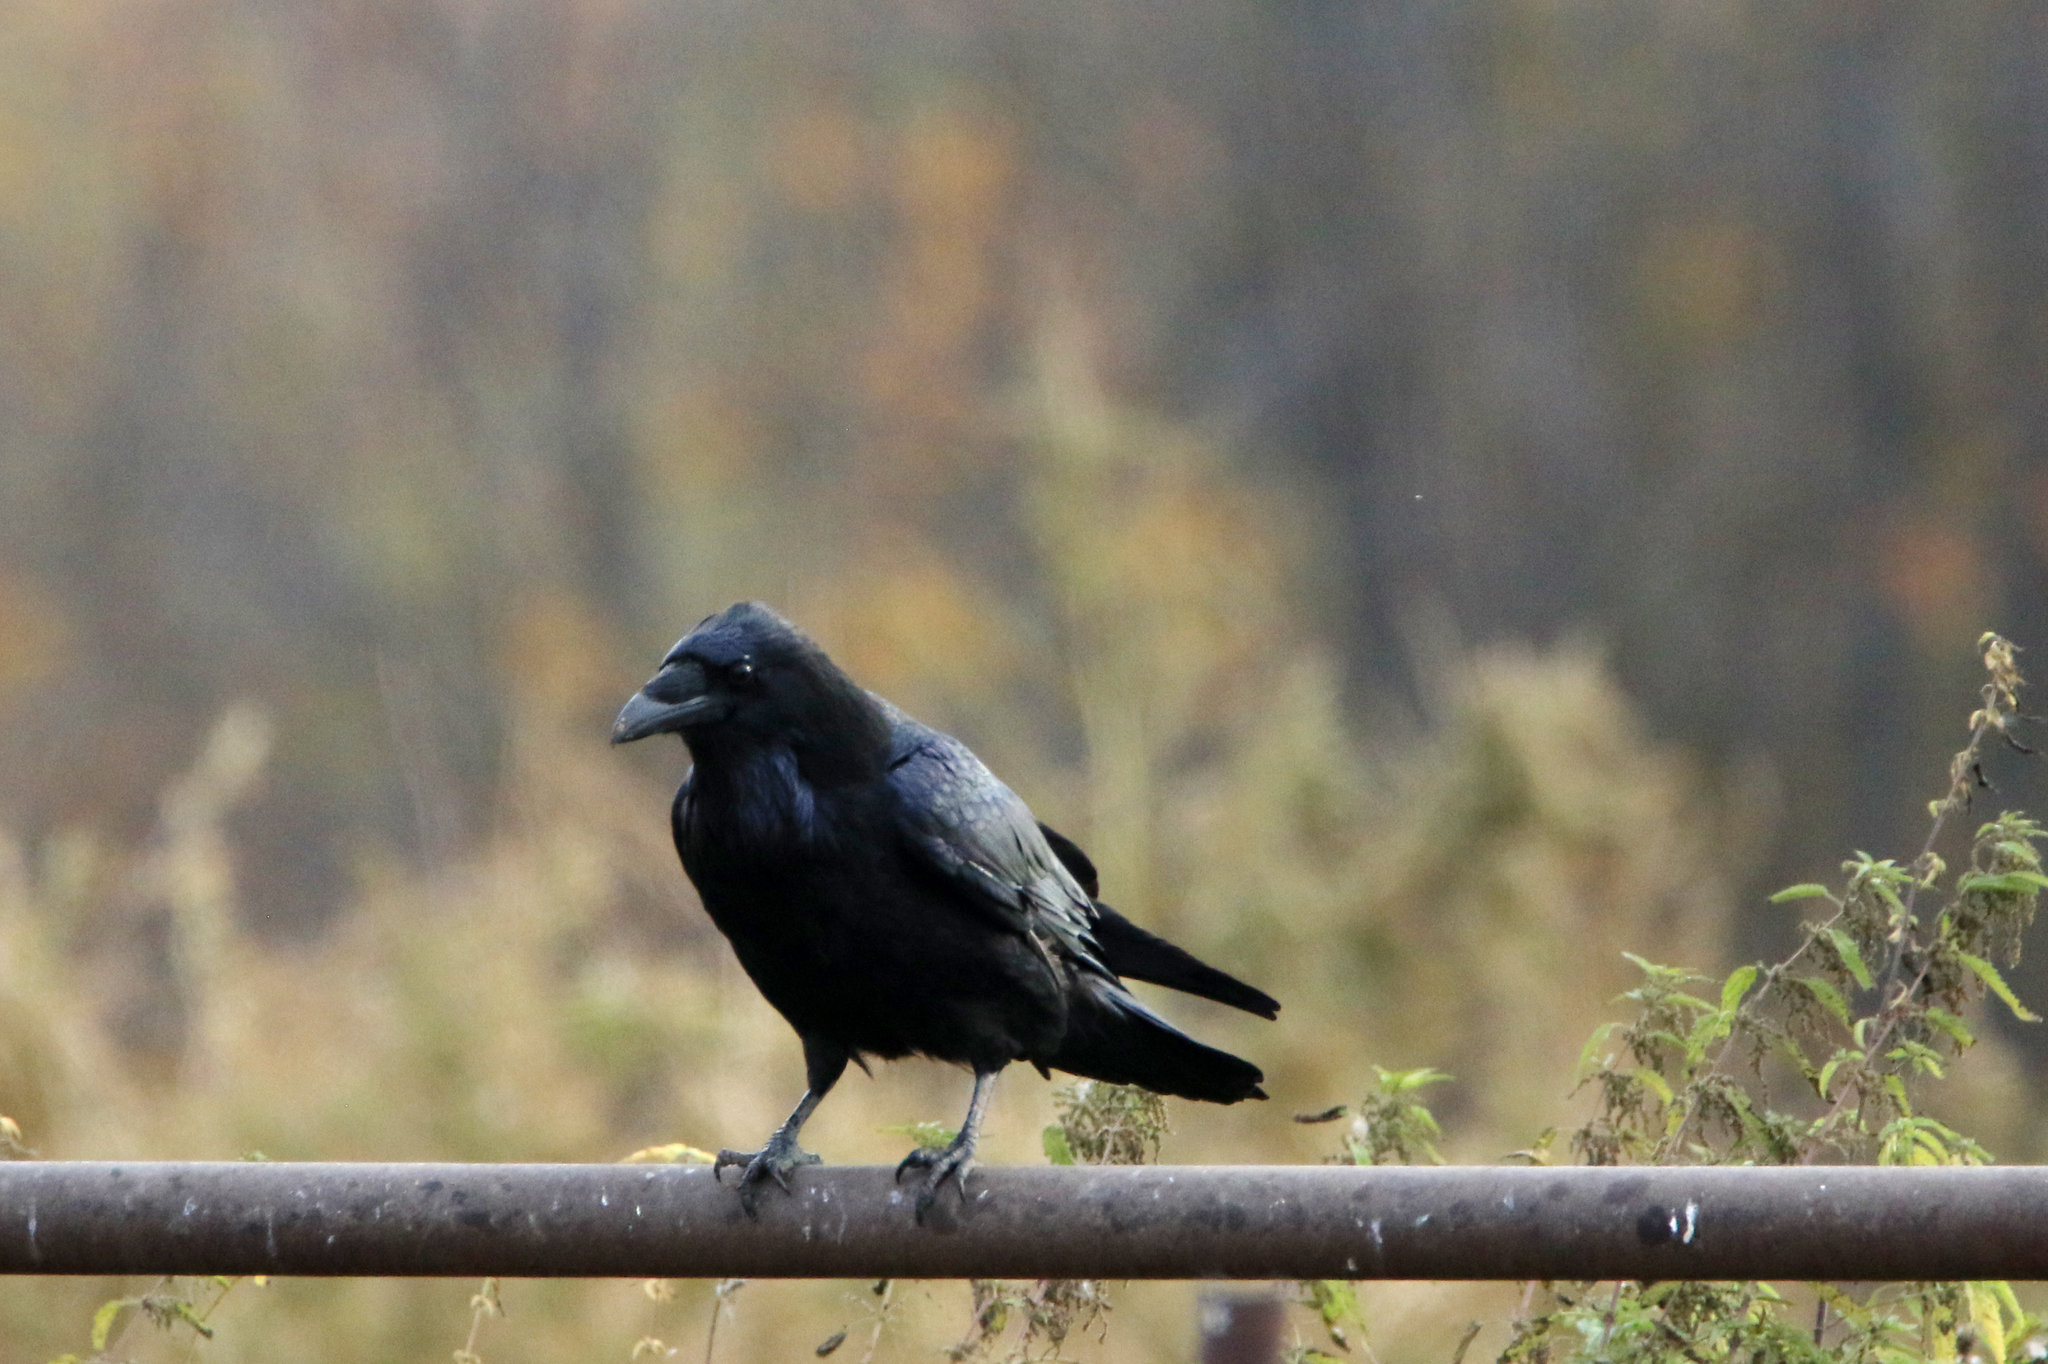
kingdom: Animalia
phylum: Chordata
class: Aves
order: Passeriformes
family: Corvidae
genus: Corvus
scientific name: Corvus corax
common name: Common raven
